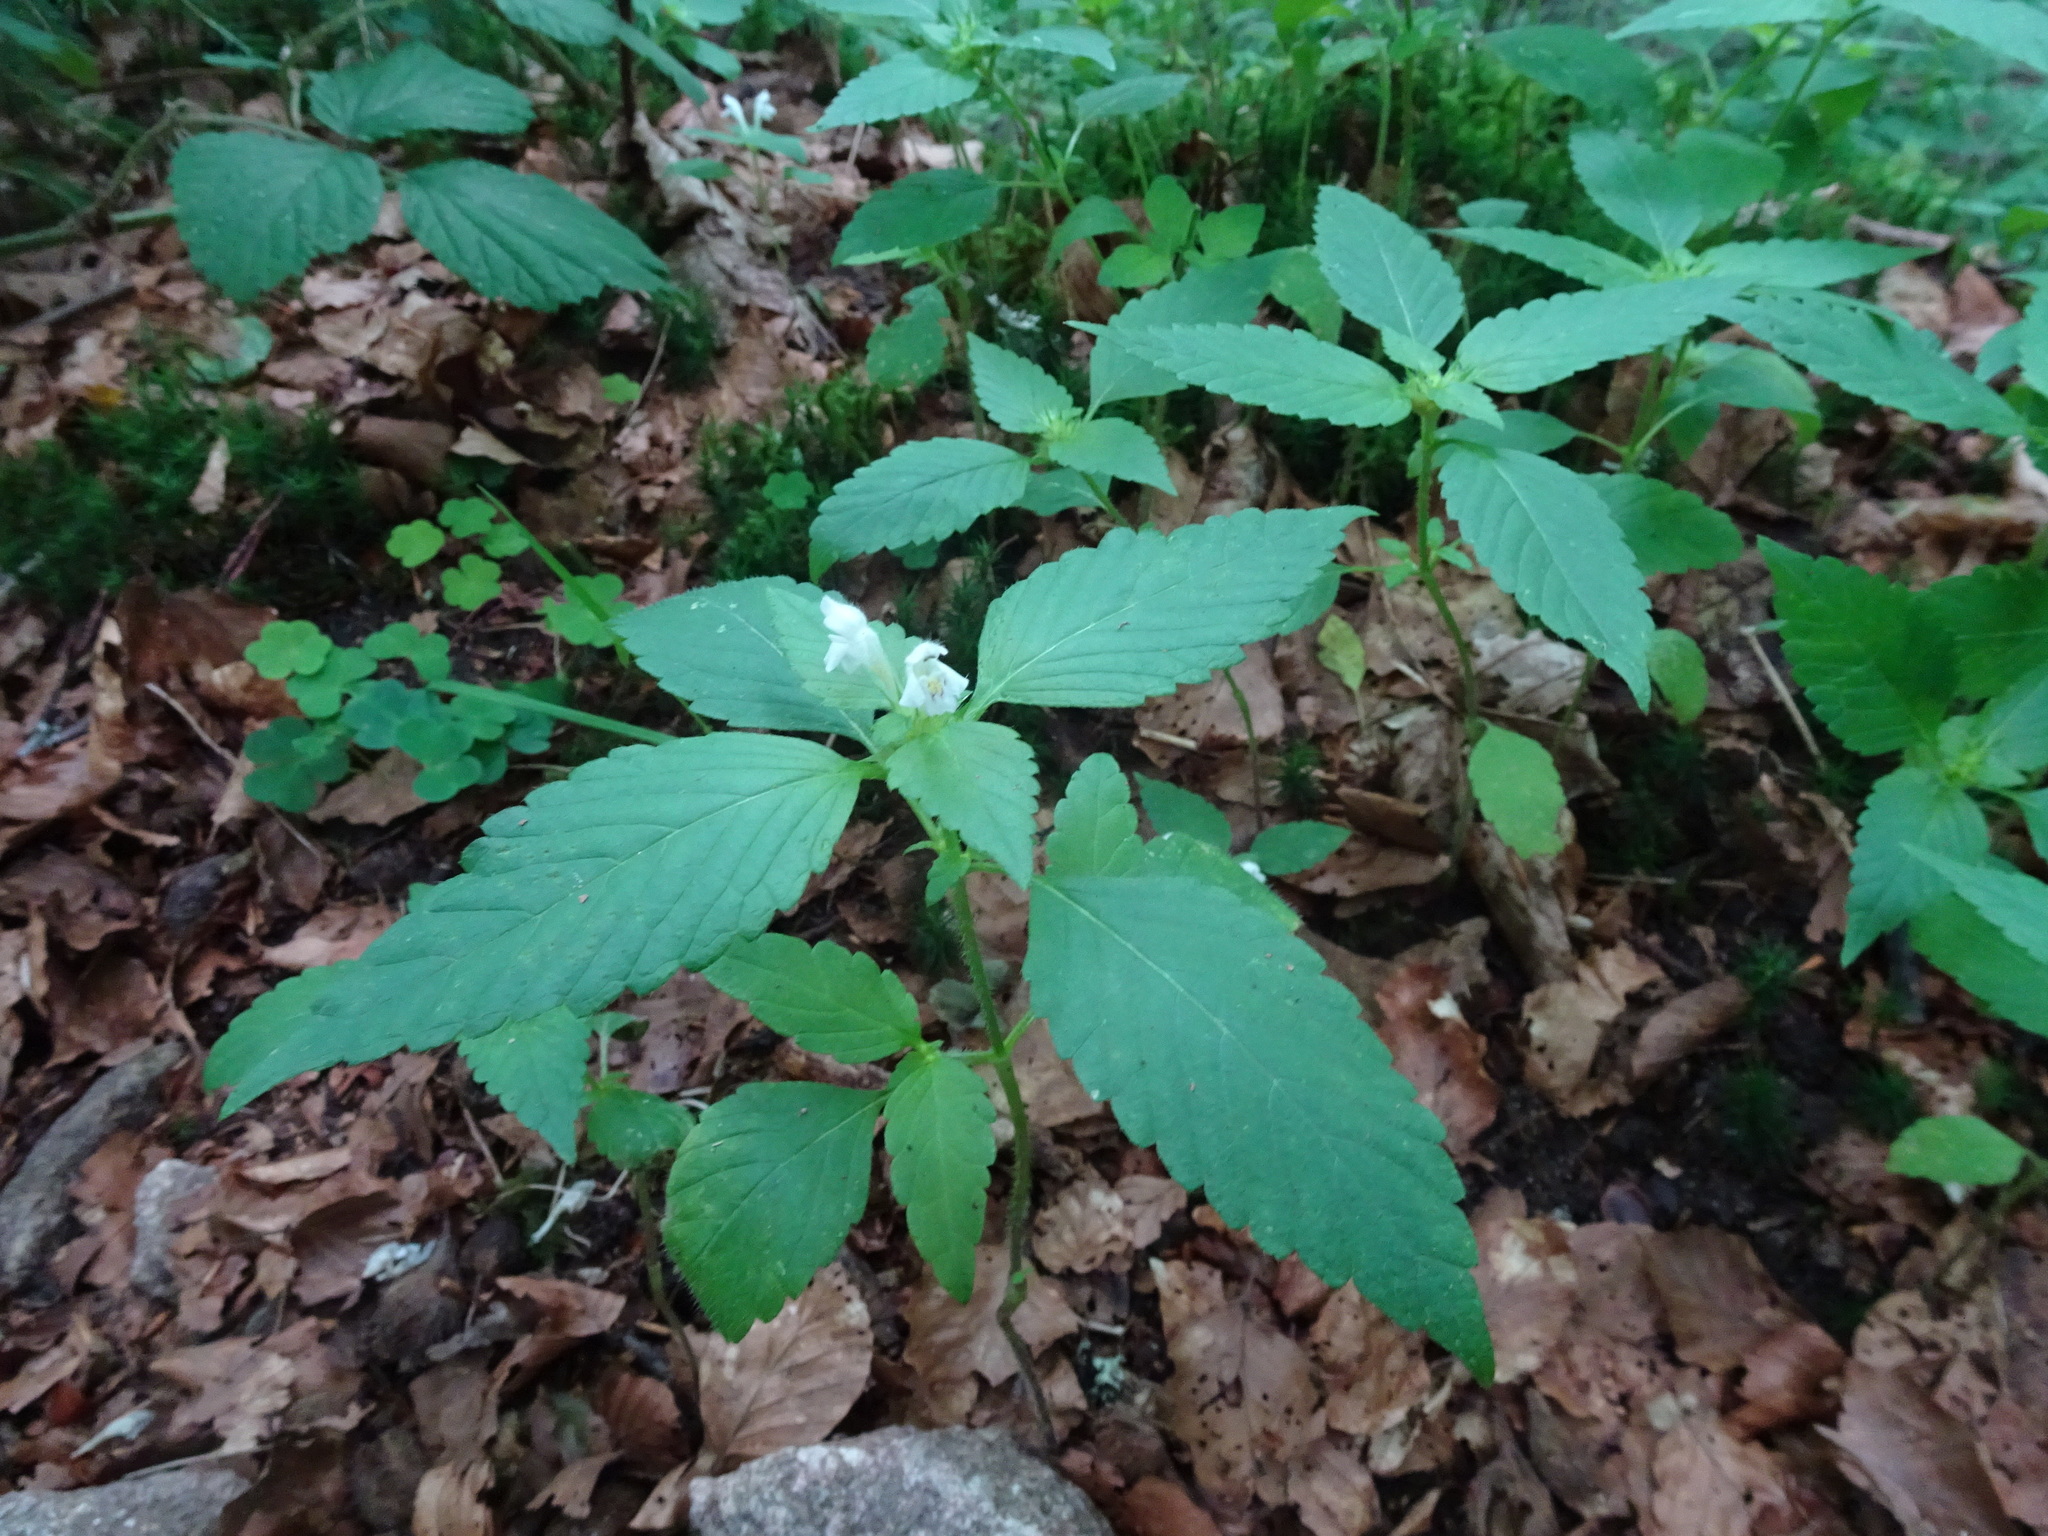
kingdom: Plantae
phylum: Tracheophyta
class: Magnoliopsida
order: Lamiales
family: Lamiaceae
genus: Galeopsis
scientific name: Galeopsis tetrahit
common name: Common hemp-nettle
